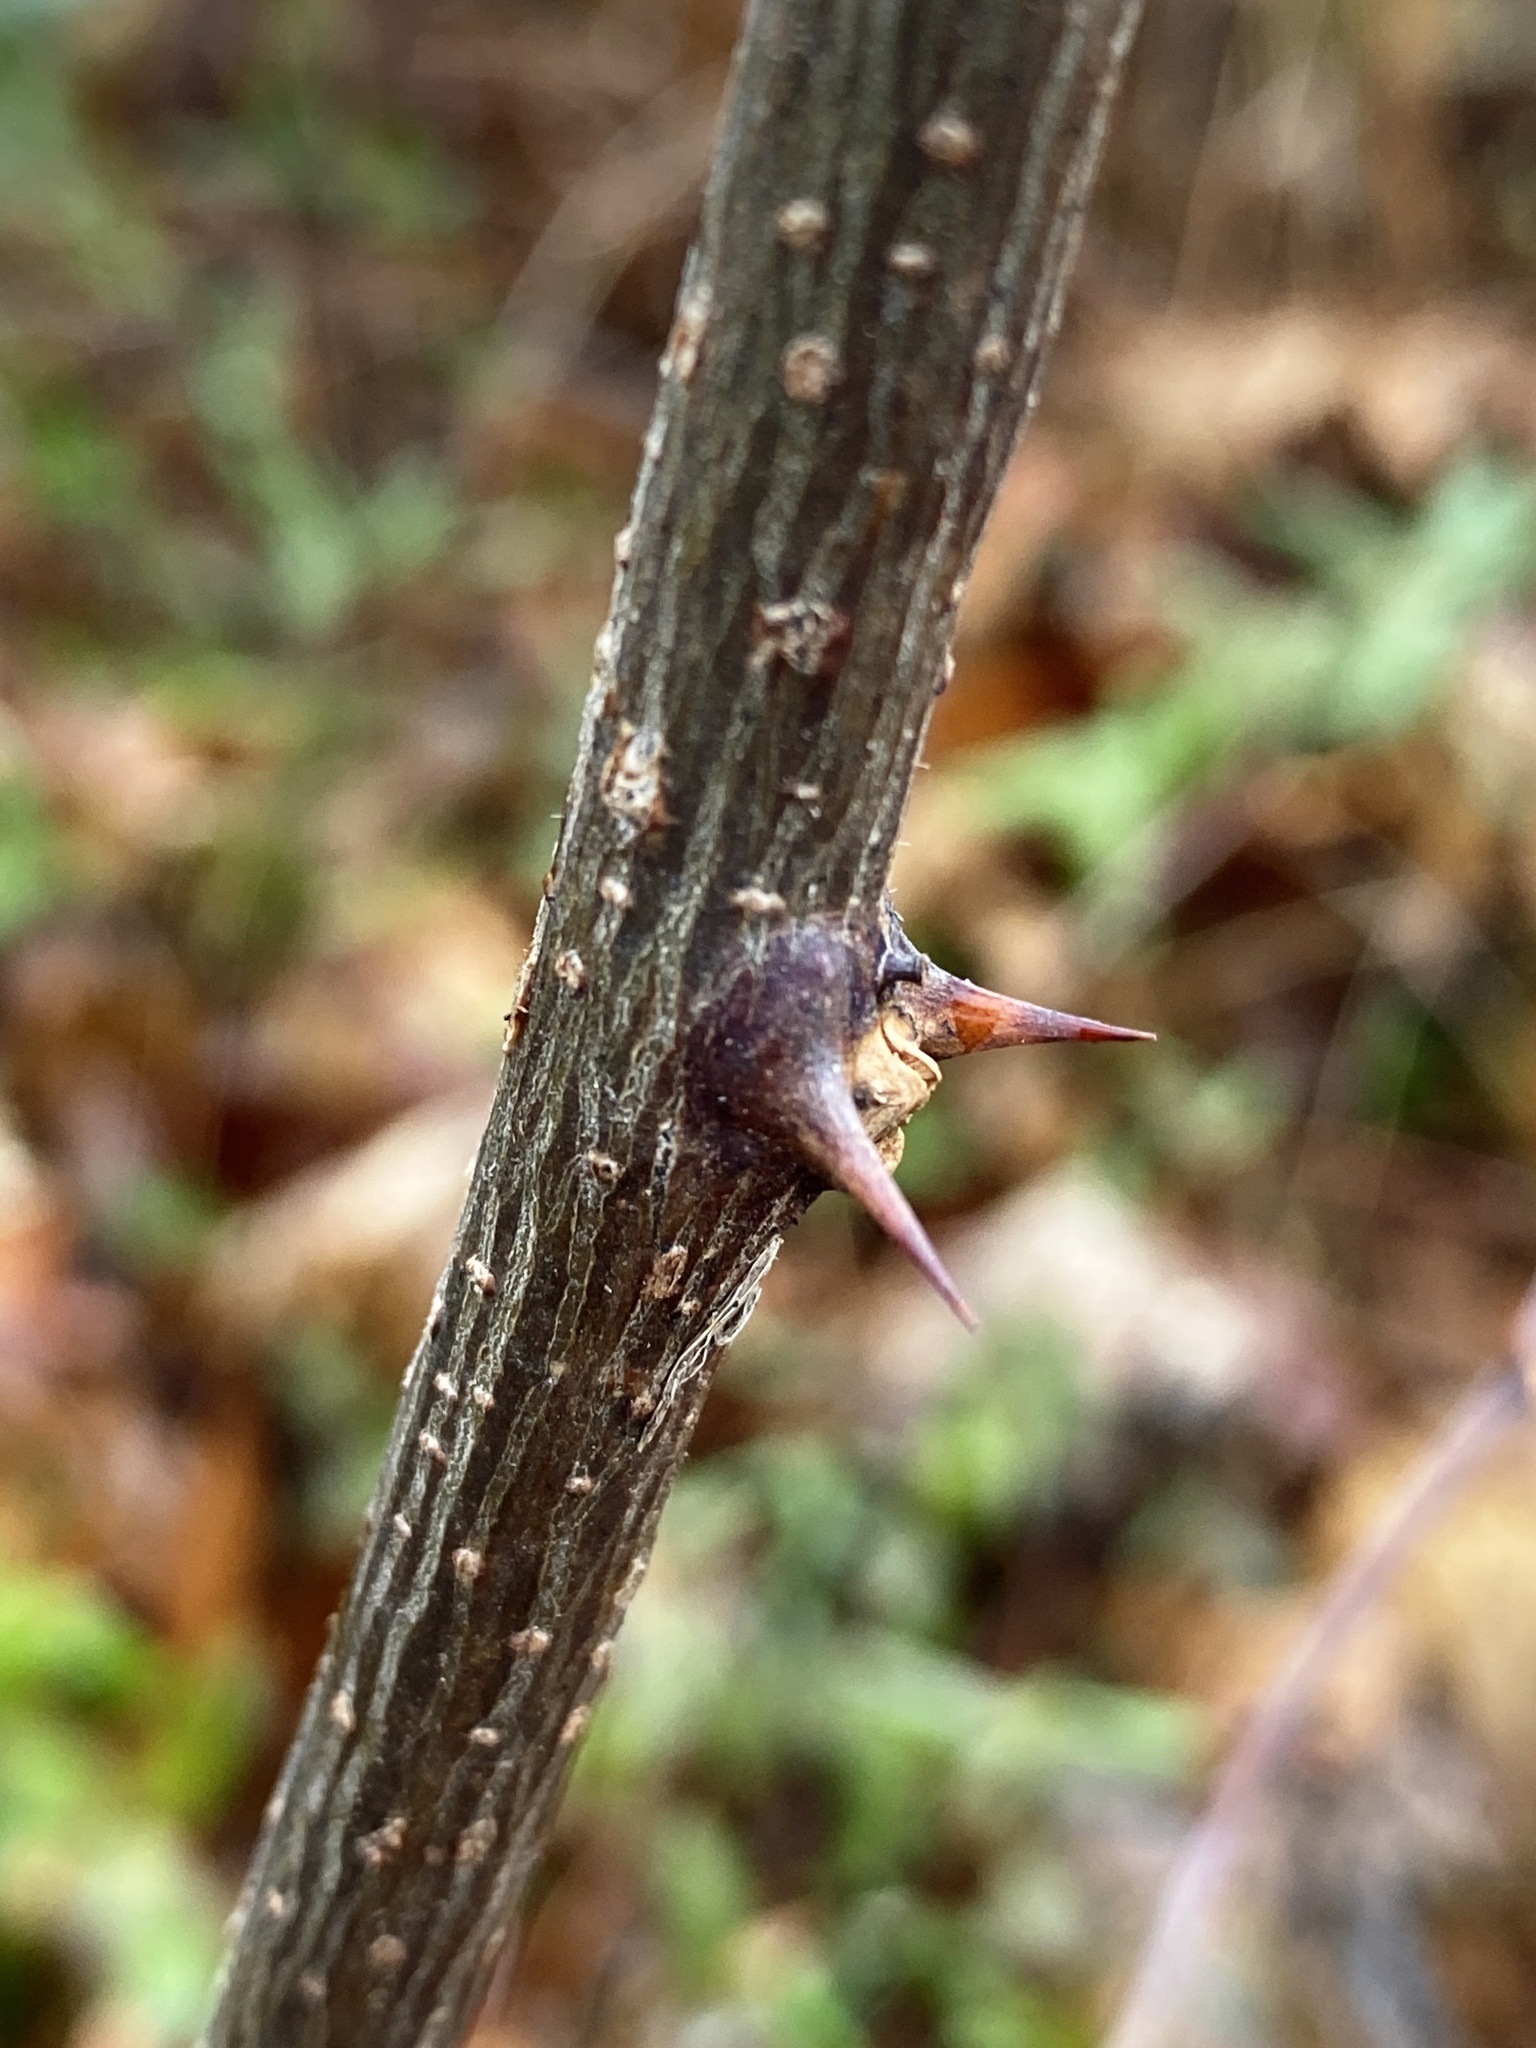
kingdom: Plantae
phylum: Tracheophyta
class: Magnoliopsida
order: Fabales
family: Fabaceae
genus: Robinia
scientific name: Robinia pseudoacacia
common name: Black locust
